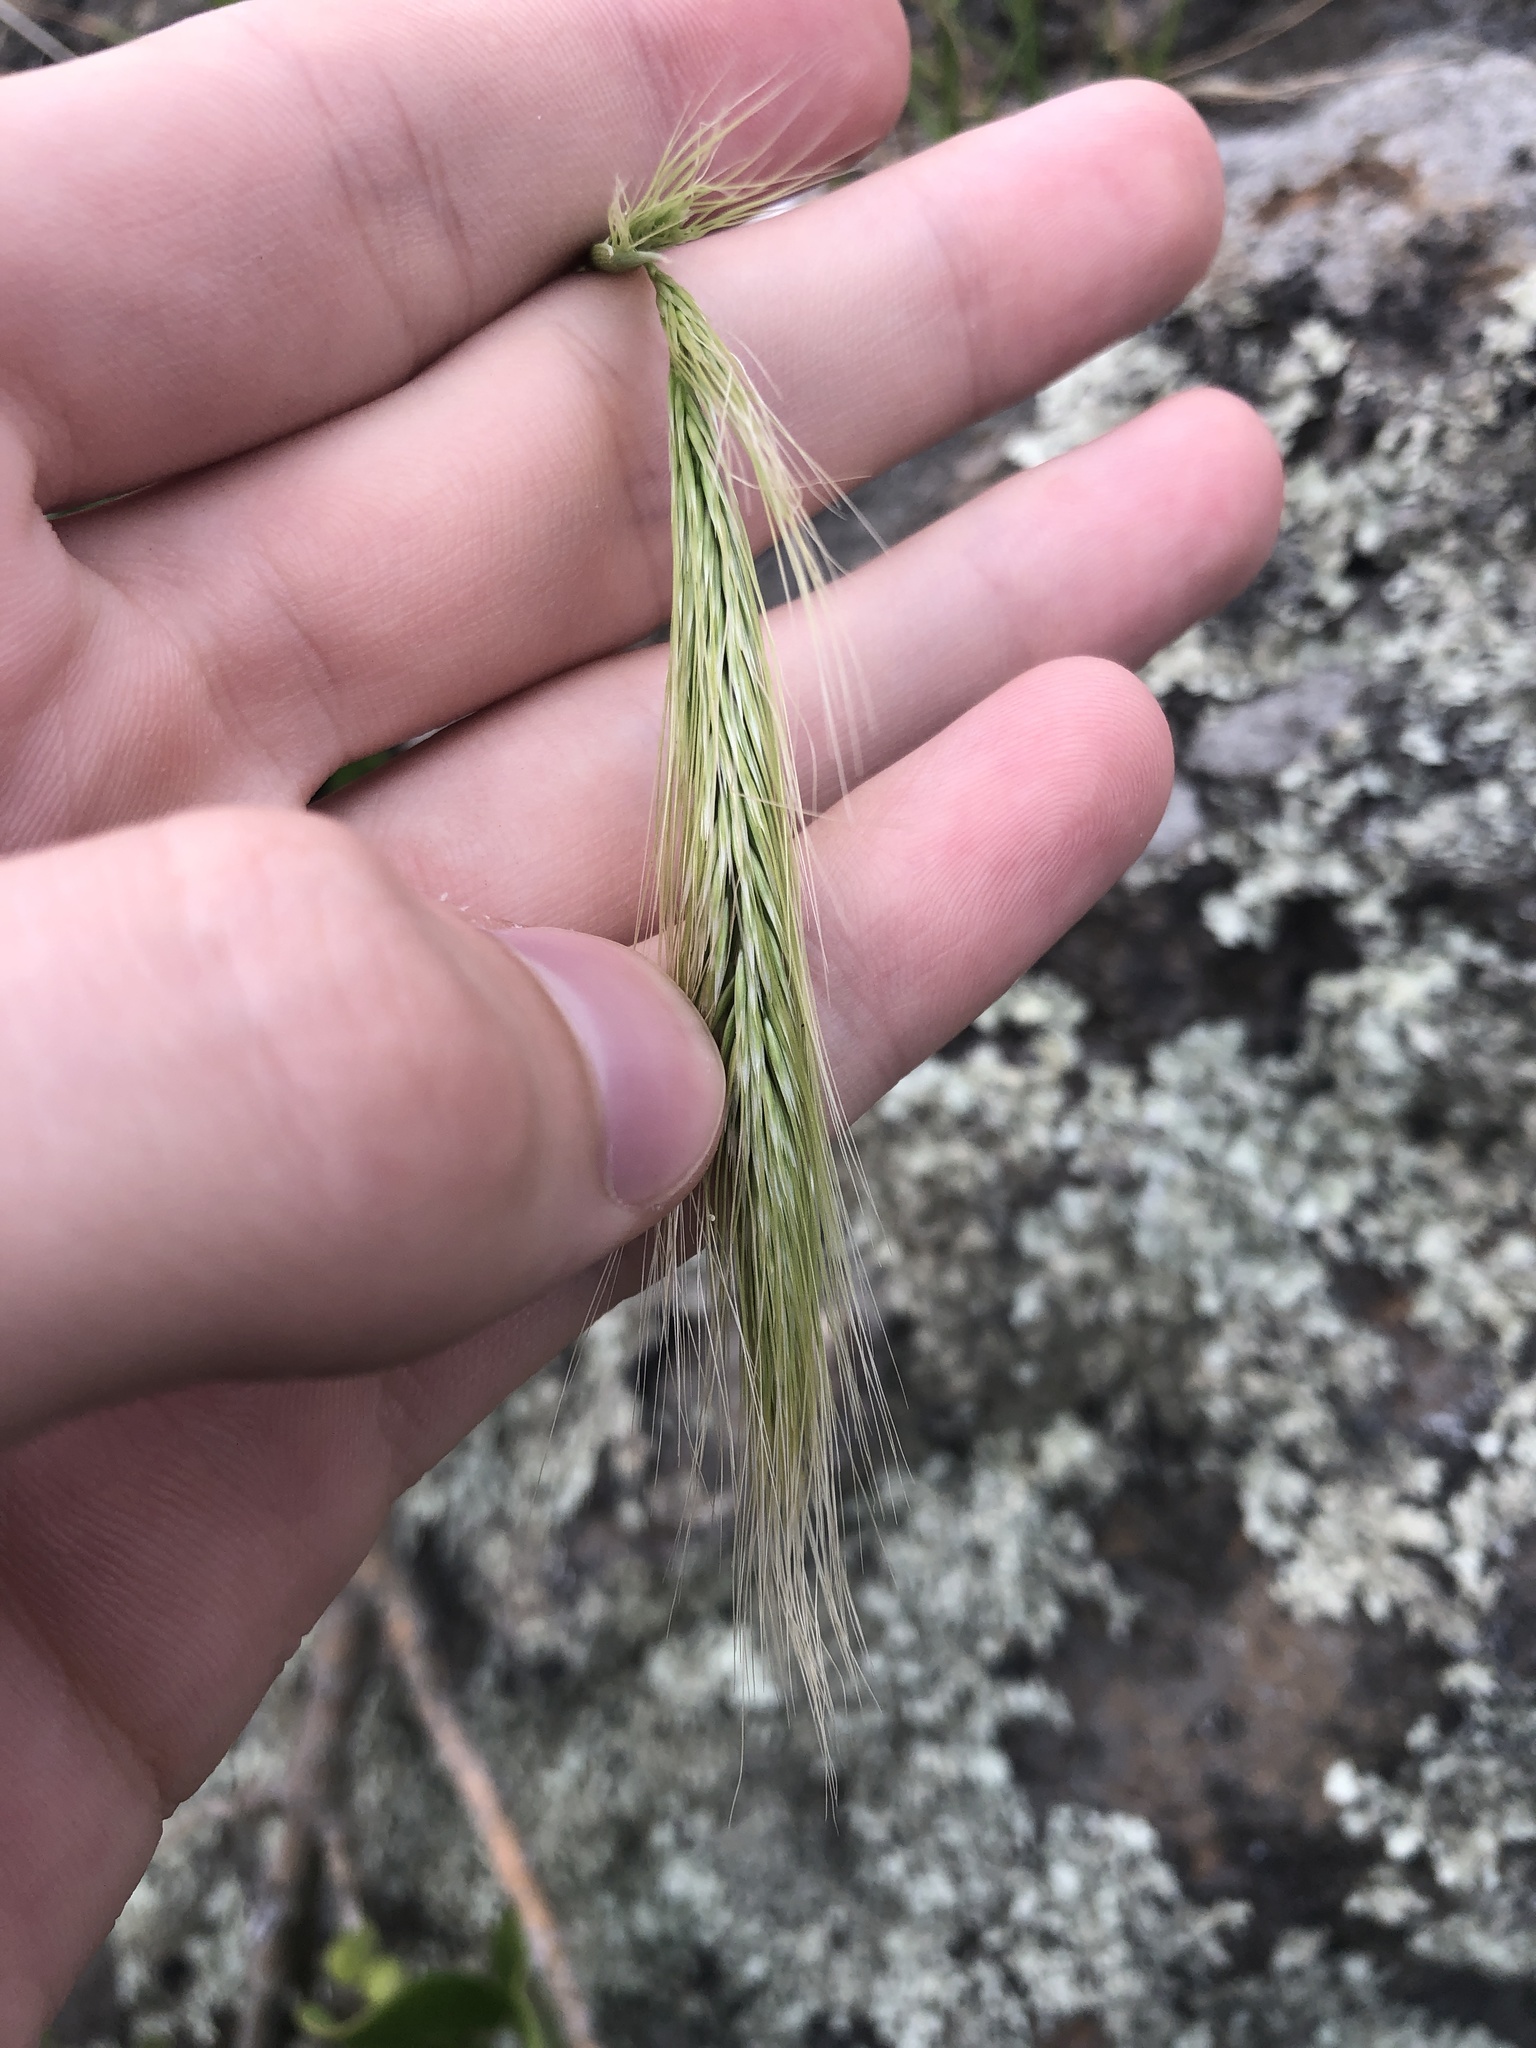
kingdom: Plantae
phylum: Tracheophyta
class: Liliopsida
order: Poales
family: Poaceae
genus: Dichelachne
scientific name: Dichelachne crinita
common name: Clovenfoot plumegrass
